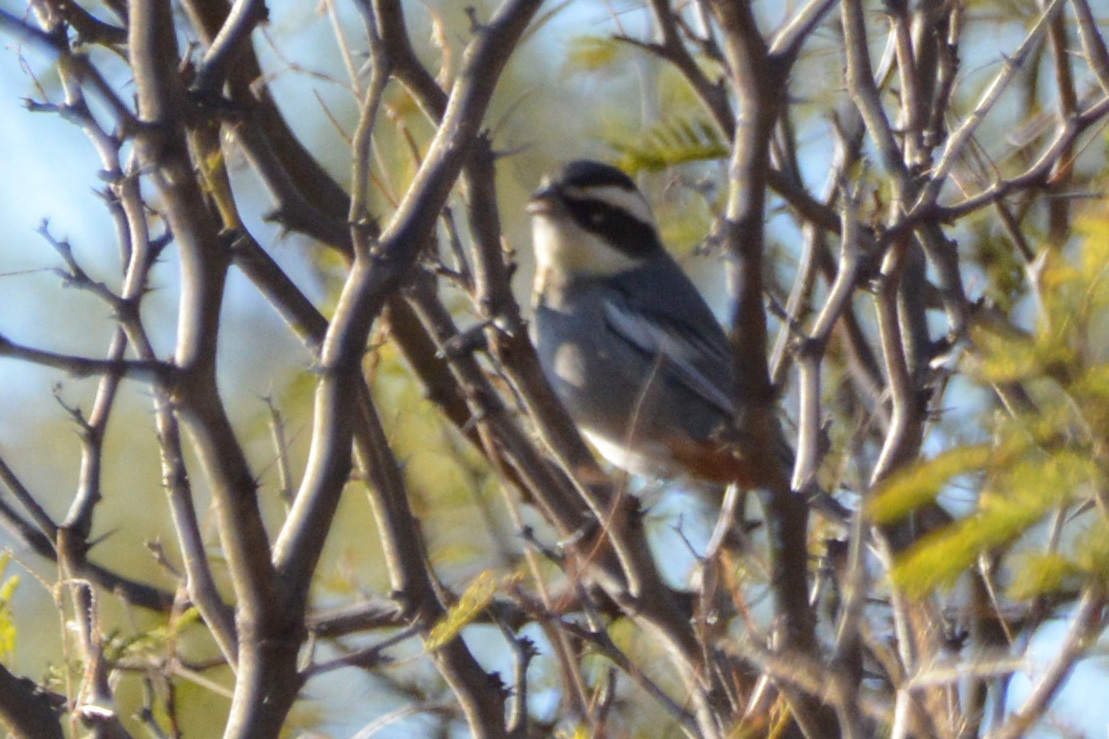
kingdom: Animalia
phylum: Chordata
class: Aves
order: Passeriformes
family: Thraupidae
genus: Microspingus
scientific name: Microspingus torquatus
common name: Ringed warbling-finch
